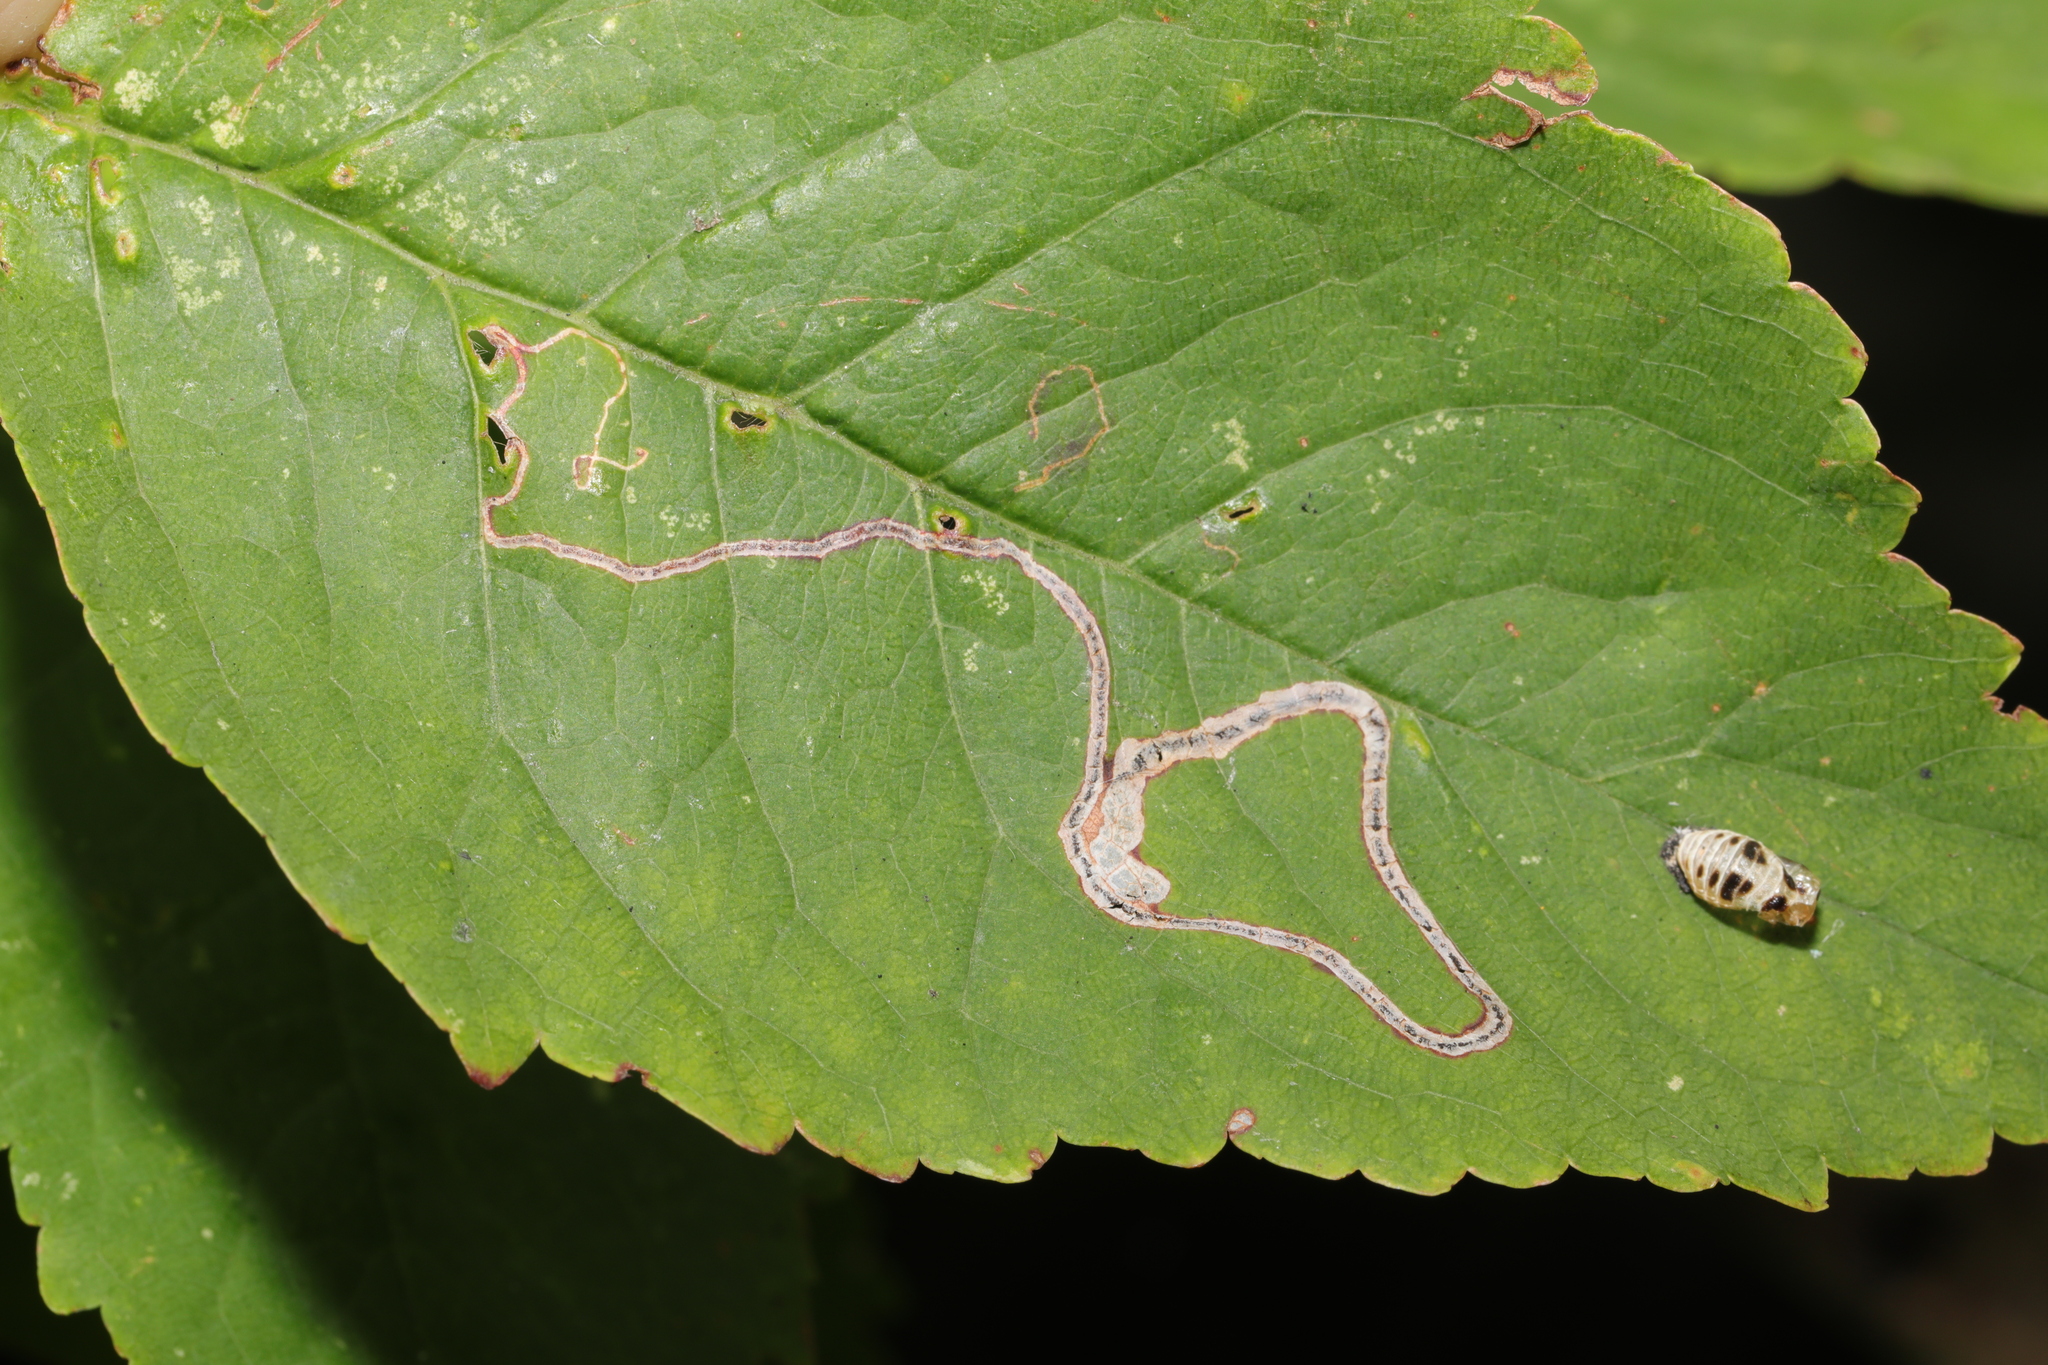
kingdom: Animalia
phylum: Arthropoda
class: Insecta
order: Lepidoptera
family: Lyonetiidae
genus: Lyonetia
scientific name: Lyonetia clerkella
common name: Apple leaf miner
